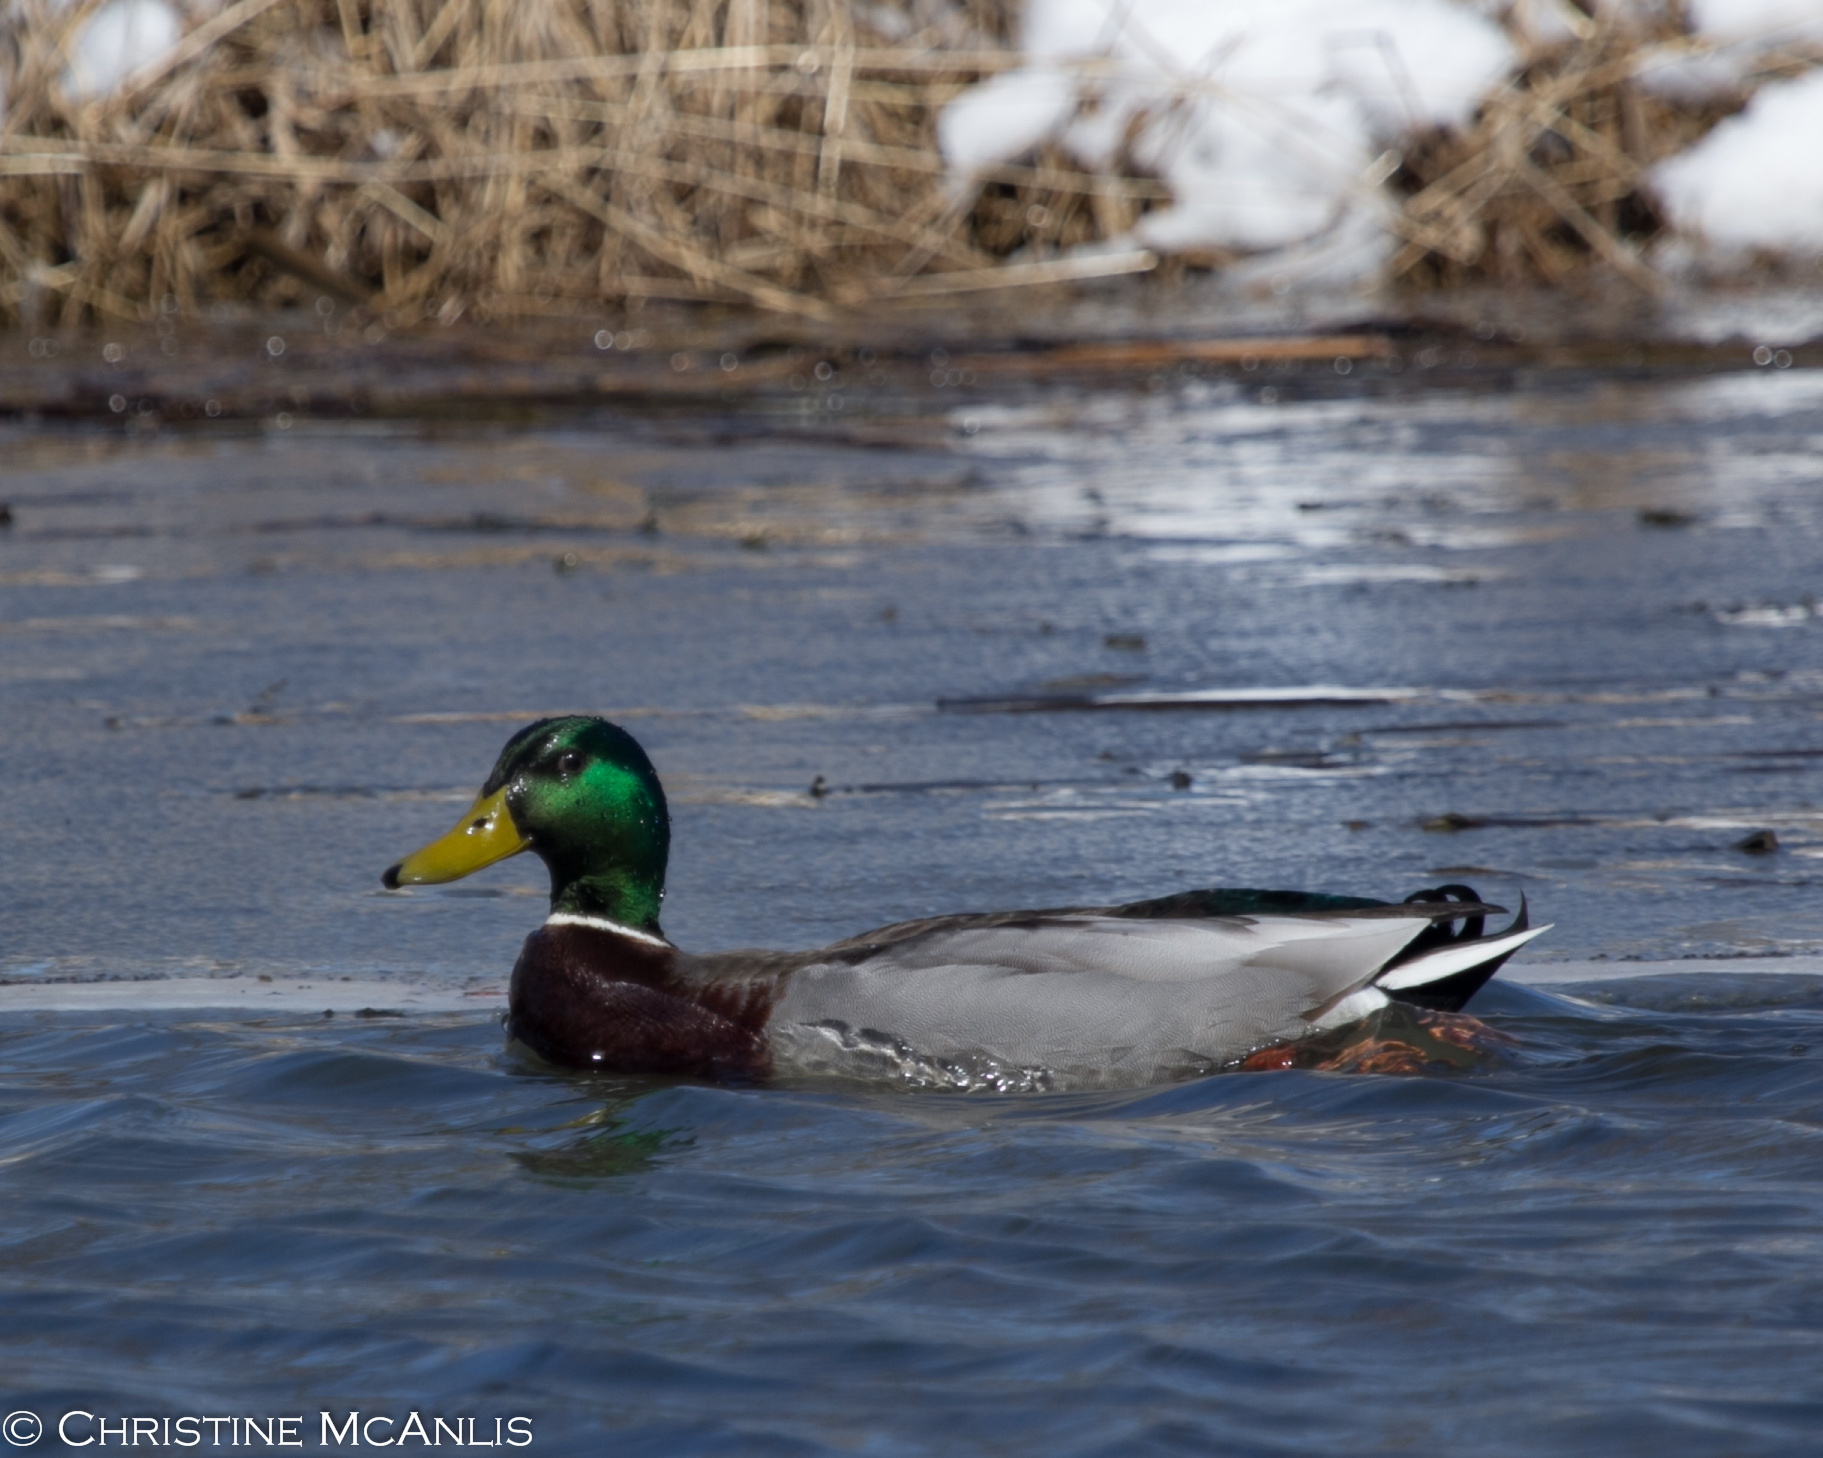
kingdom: Animalia
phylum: Chordata
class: Aves
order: Anseriformes
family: Anatidae
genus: Anas
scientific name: Anas platyrhynchos
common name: Mallard
